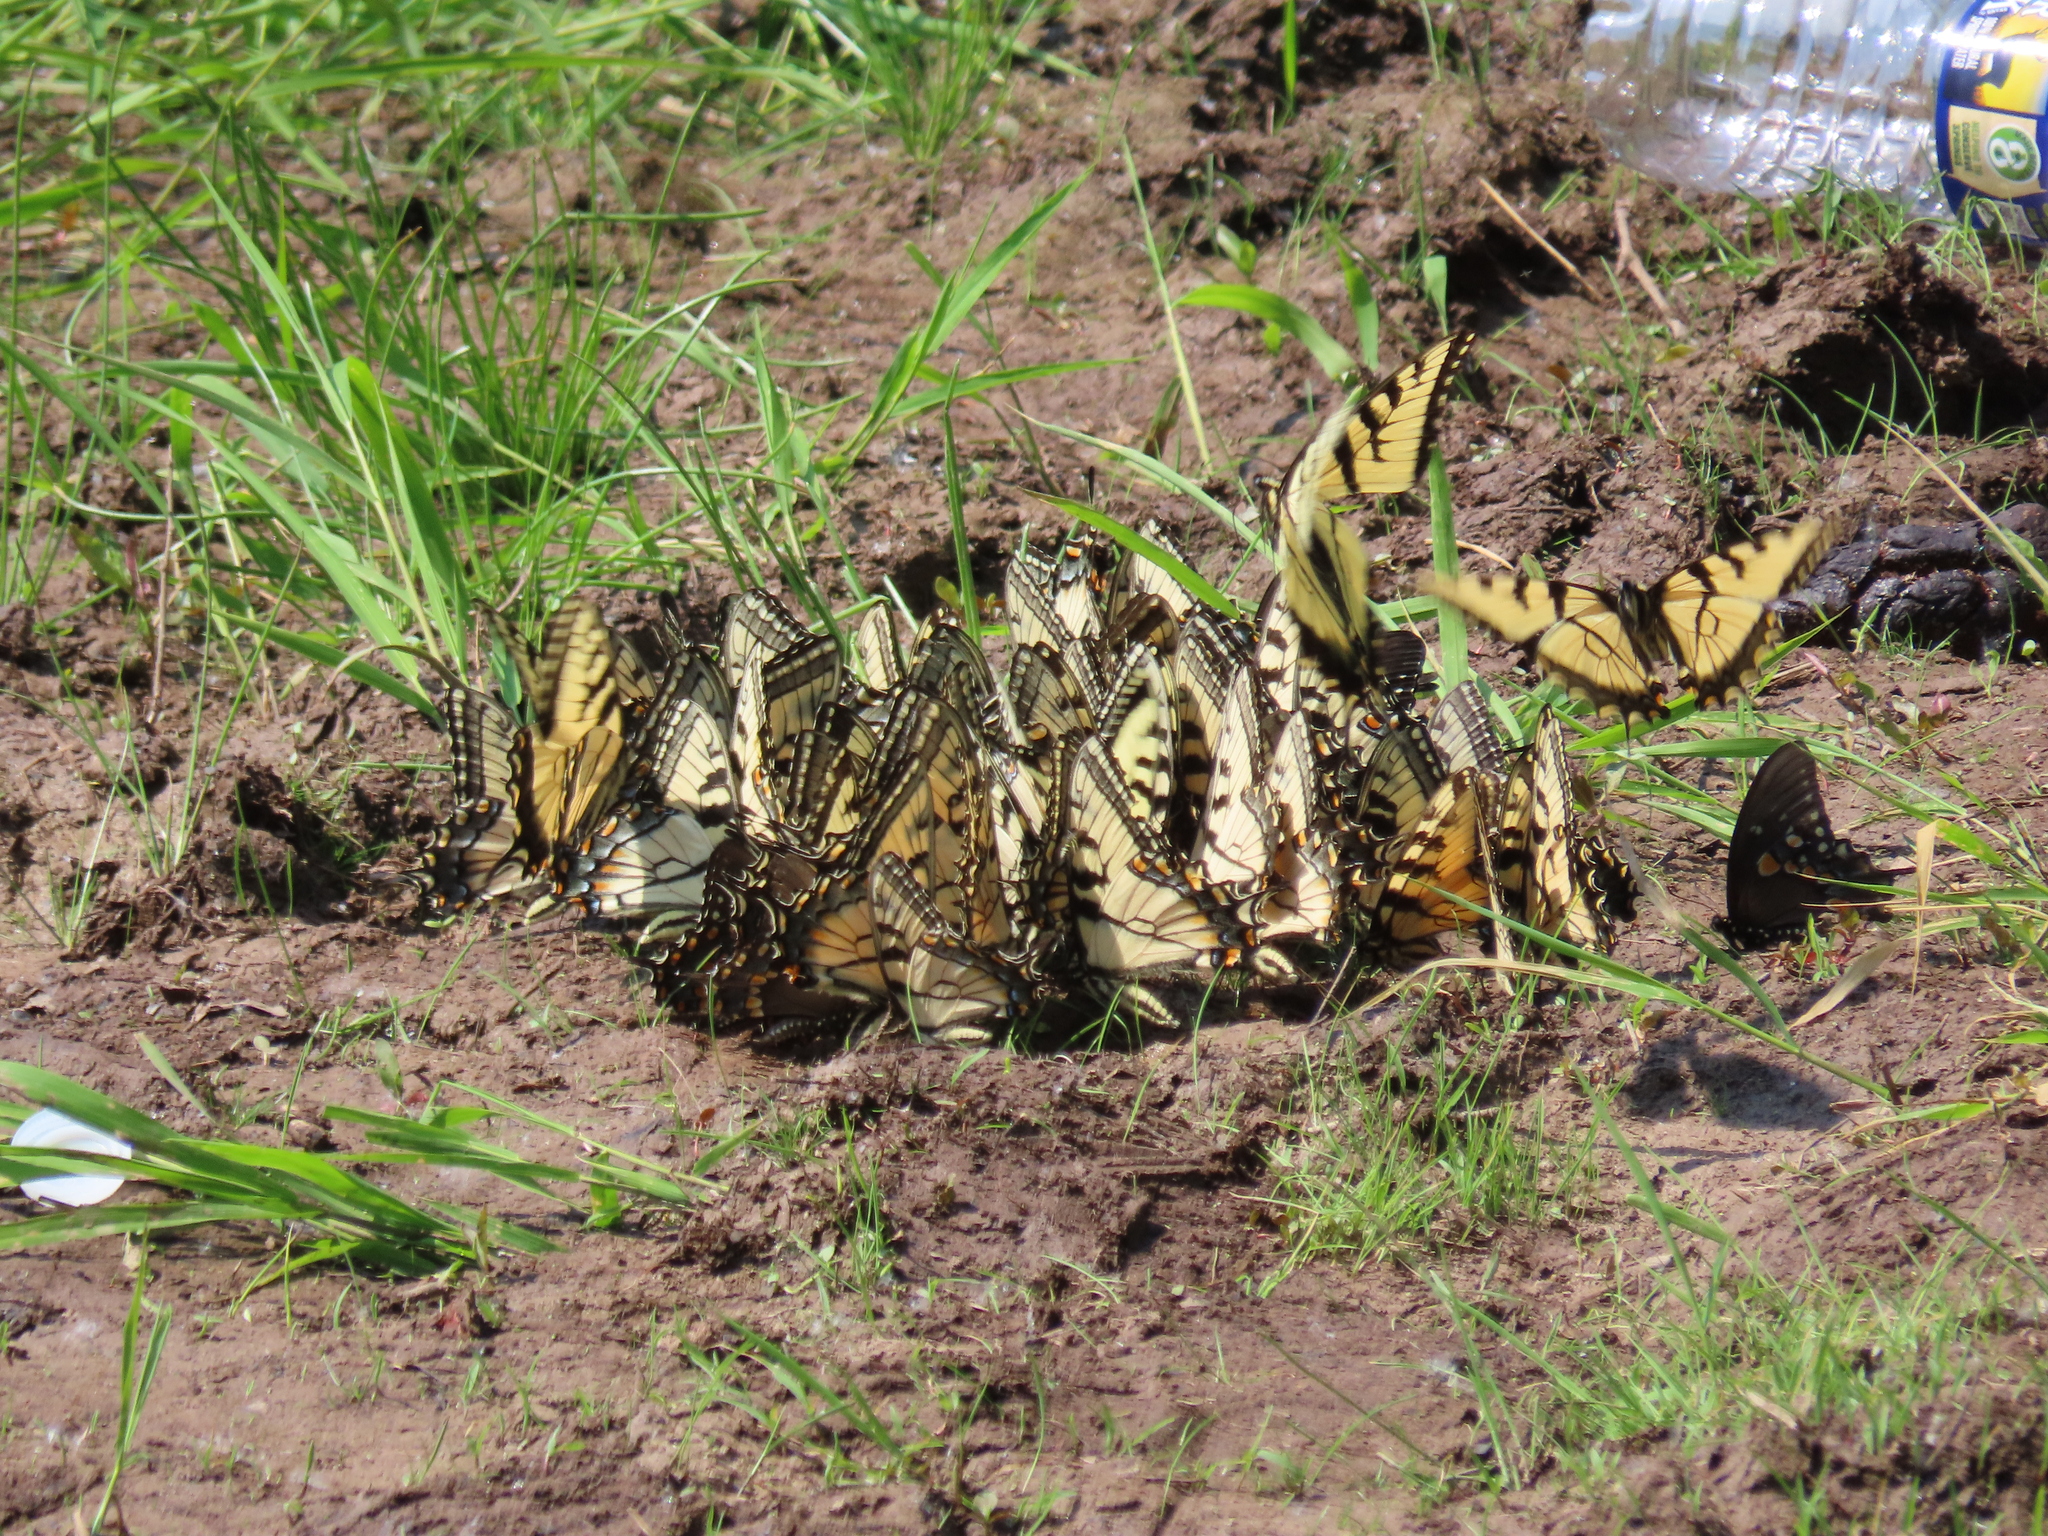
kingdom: Animalia
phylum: Arthropoda
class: Insecta
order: Lepidoptera
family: Papilionidae
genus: Papilio
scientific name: Papilio glaucus
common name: Tiger swallowtail
